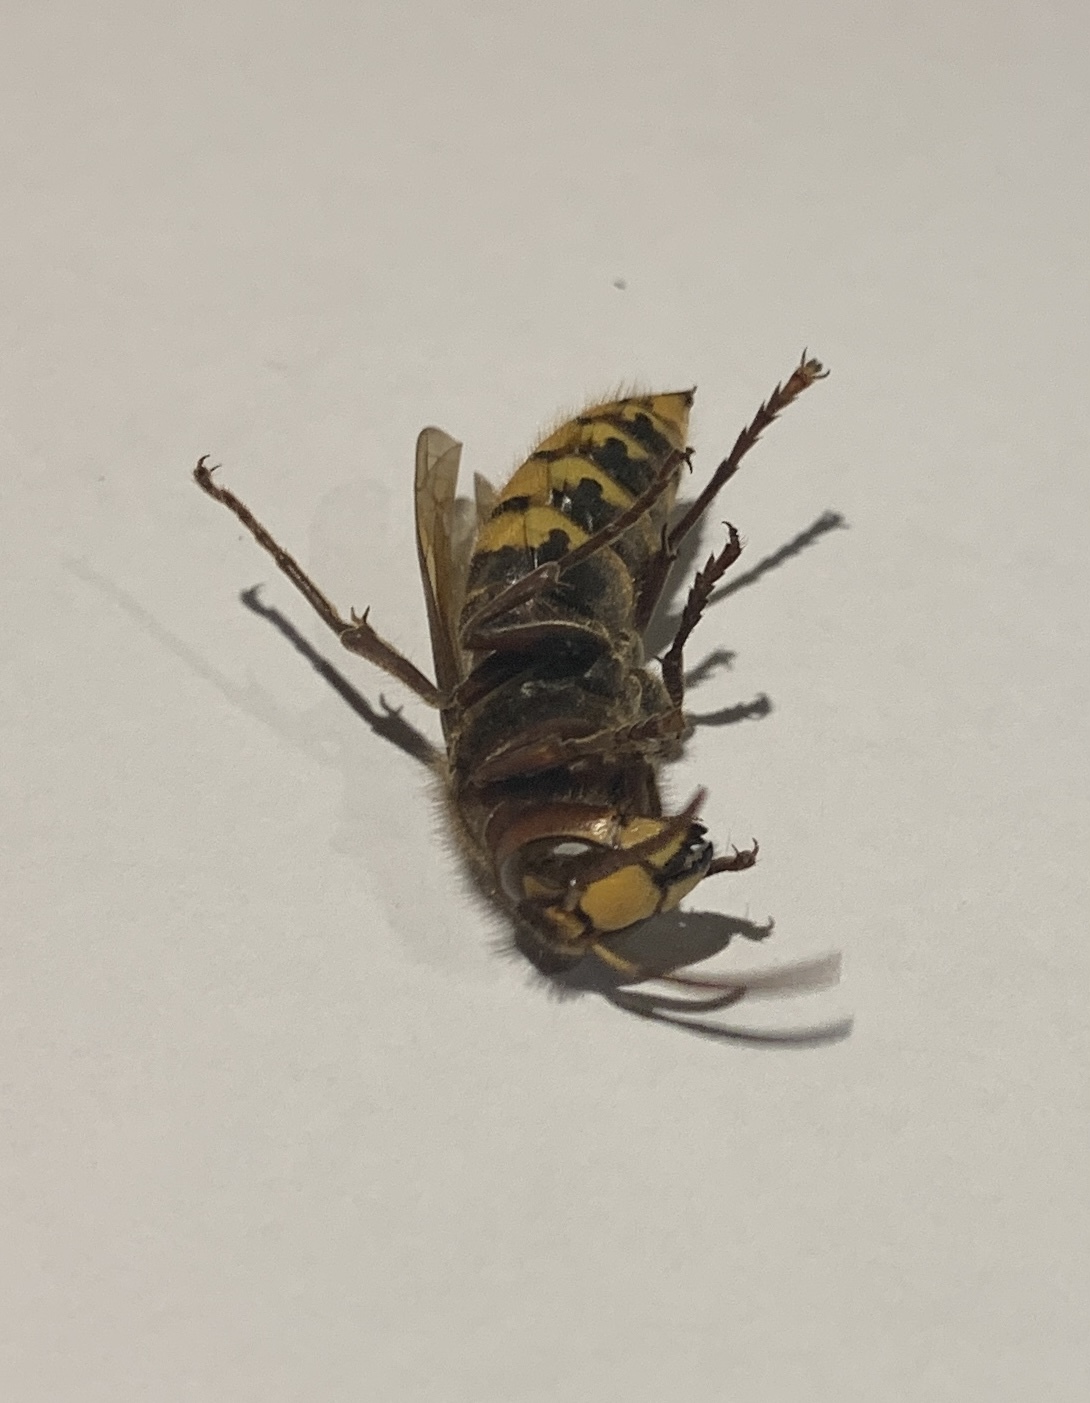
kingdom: Animalia
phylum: Arthropoda
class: Insecta
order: Hymenoptera
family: Vespidae
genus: Vespa
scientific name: Vespa crabro
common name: Hornet
